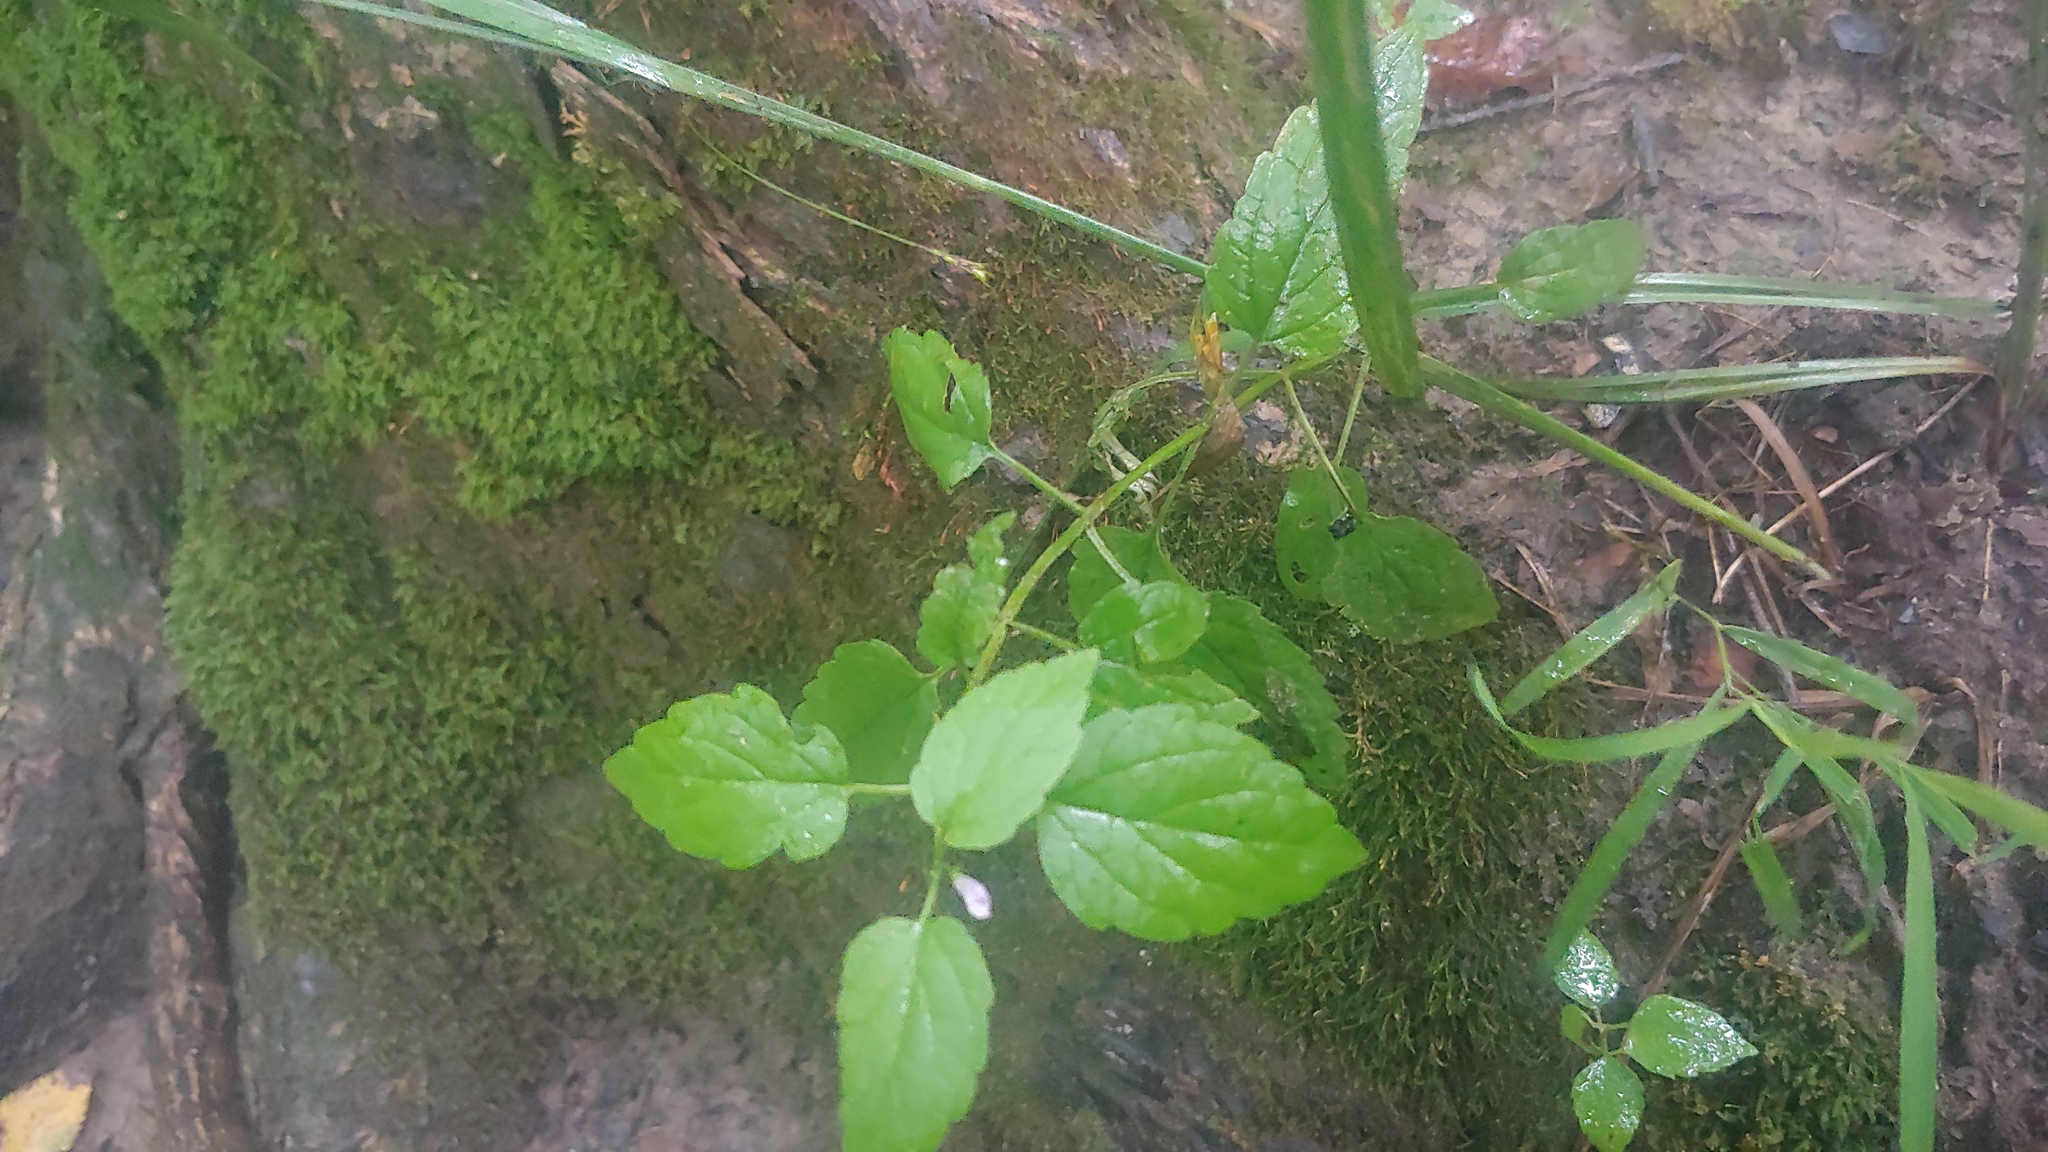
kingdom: Plantae
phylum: Tracheophyta
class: Magnoliopsida
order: Lamiales
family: Lamiaceae
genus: Scutellaria
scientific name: Scutellaria lateriflora
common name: Blue skullcap
